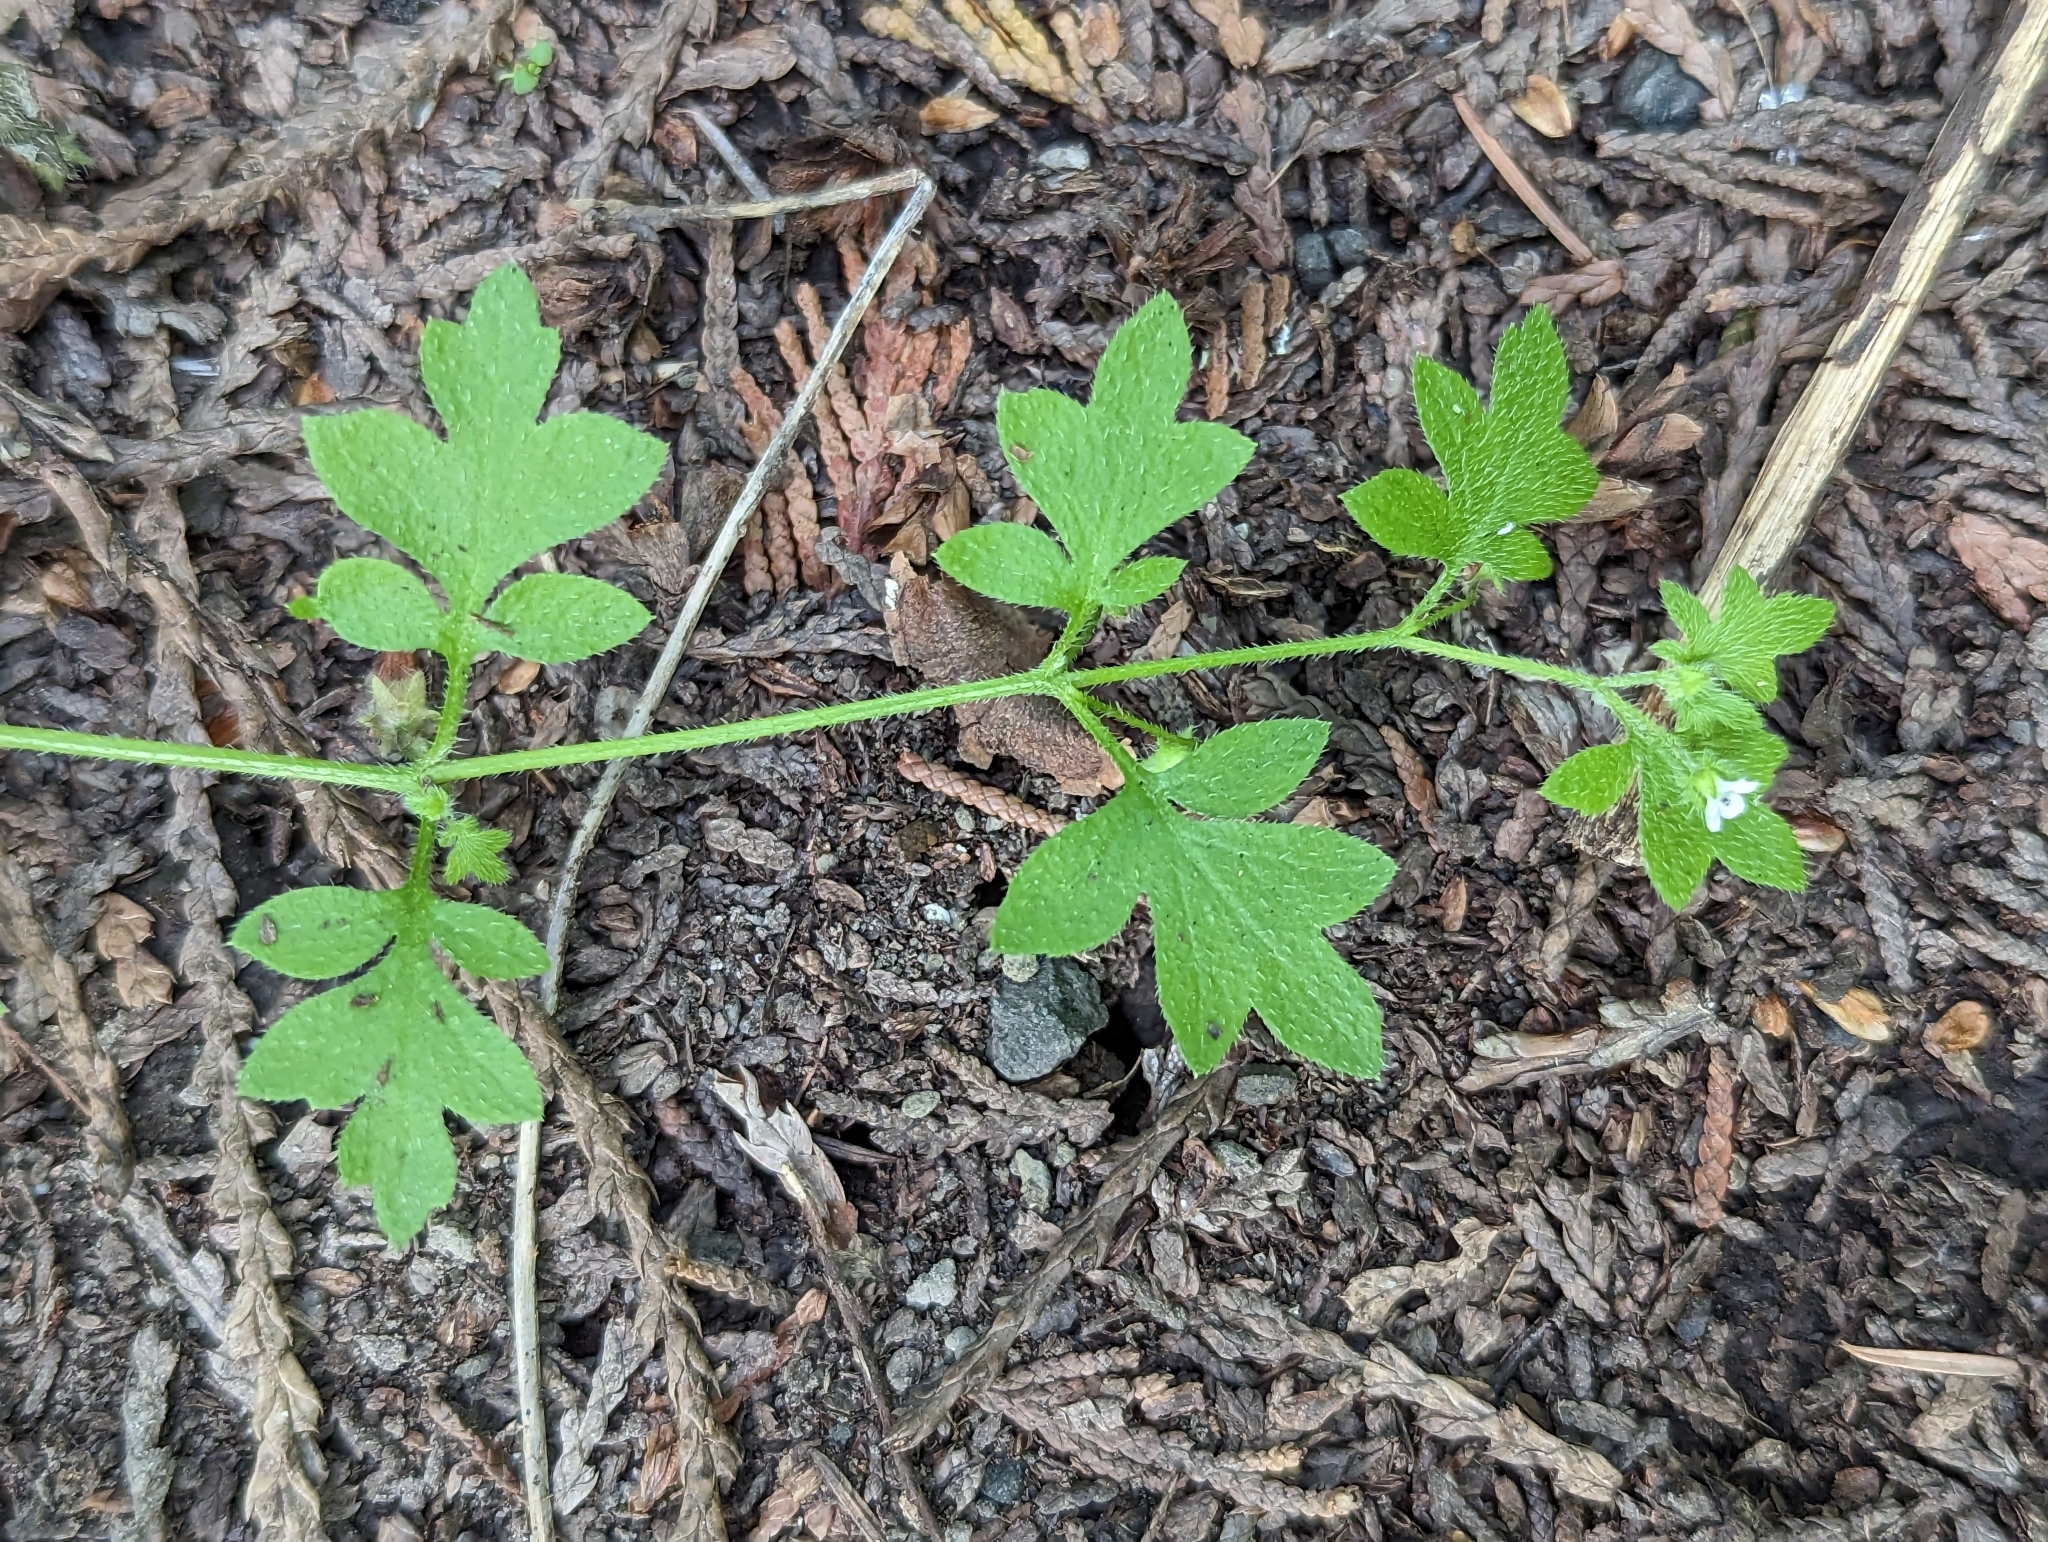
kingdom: Plantae
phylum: Tracheophyta
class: Magnoliopsida
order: Boraginales
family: Hydrophyllaceae
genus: Nemophila
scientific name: Nemophila parviflora
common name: Small-flowered baby-blue-eyes
